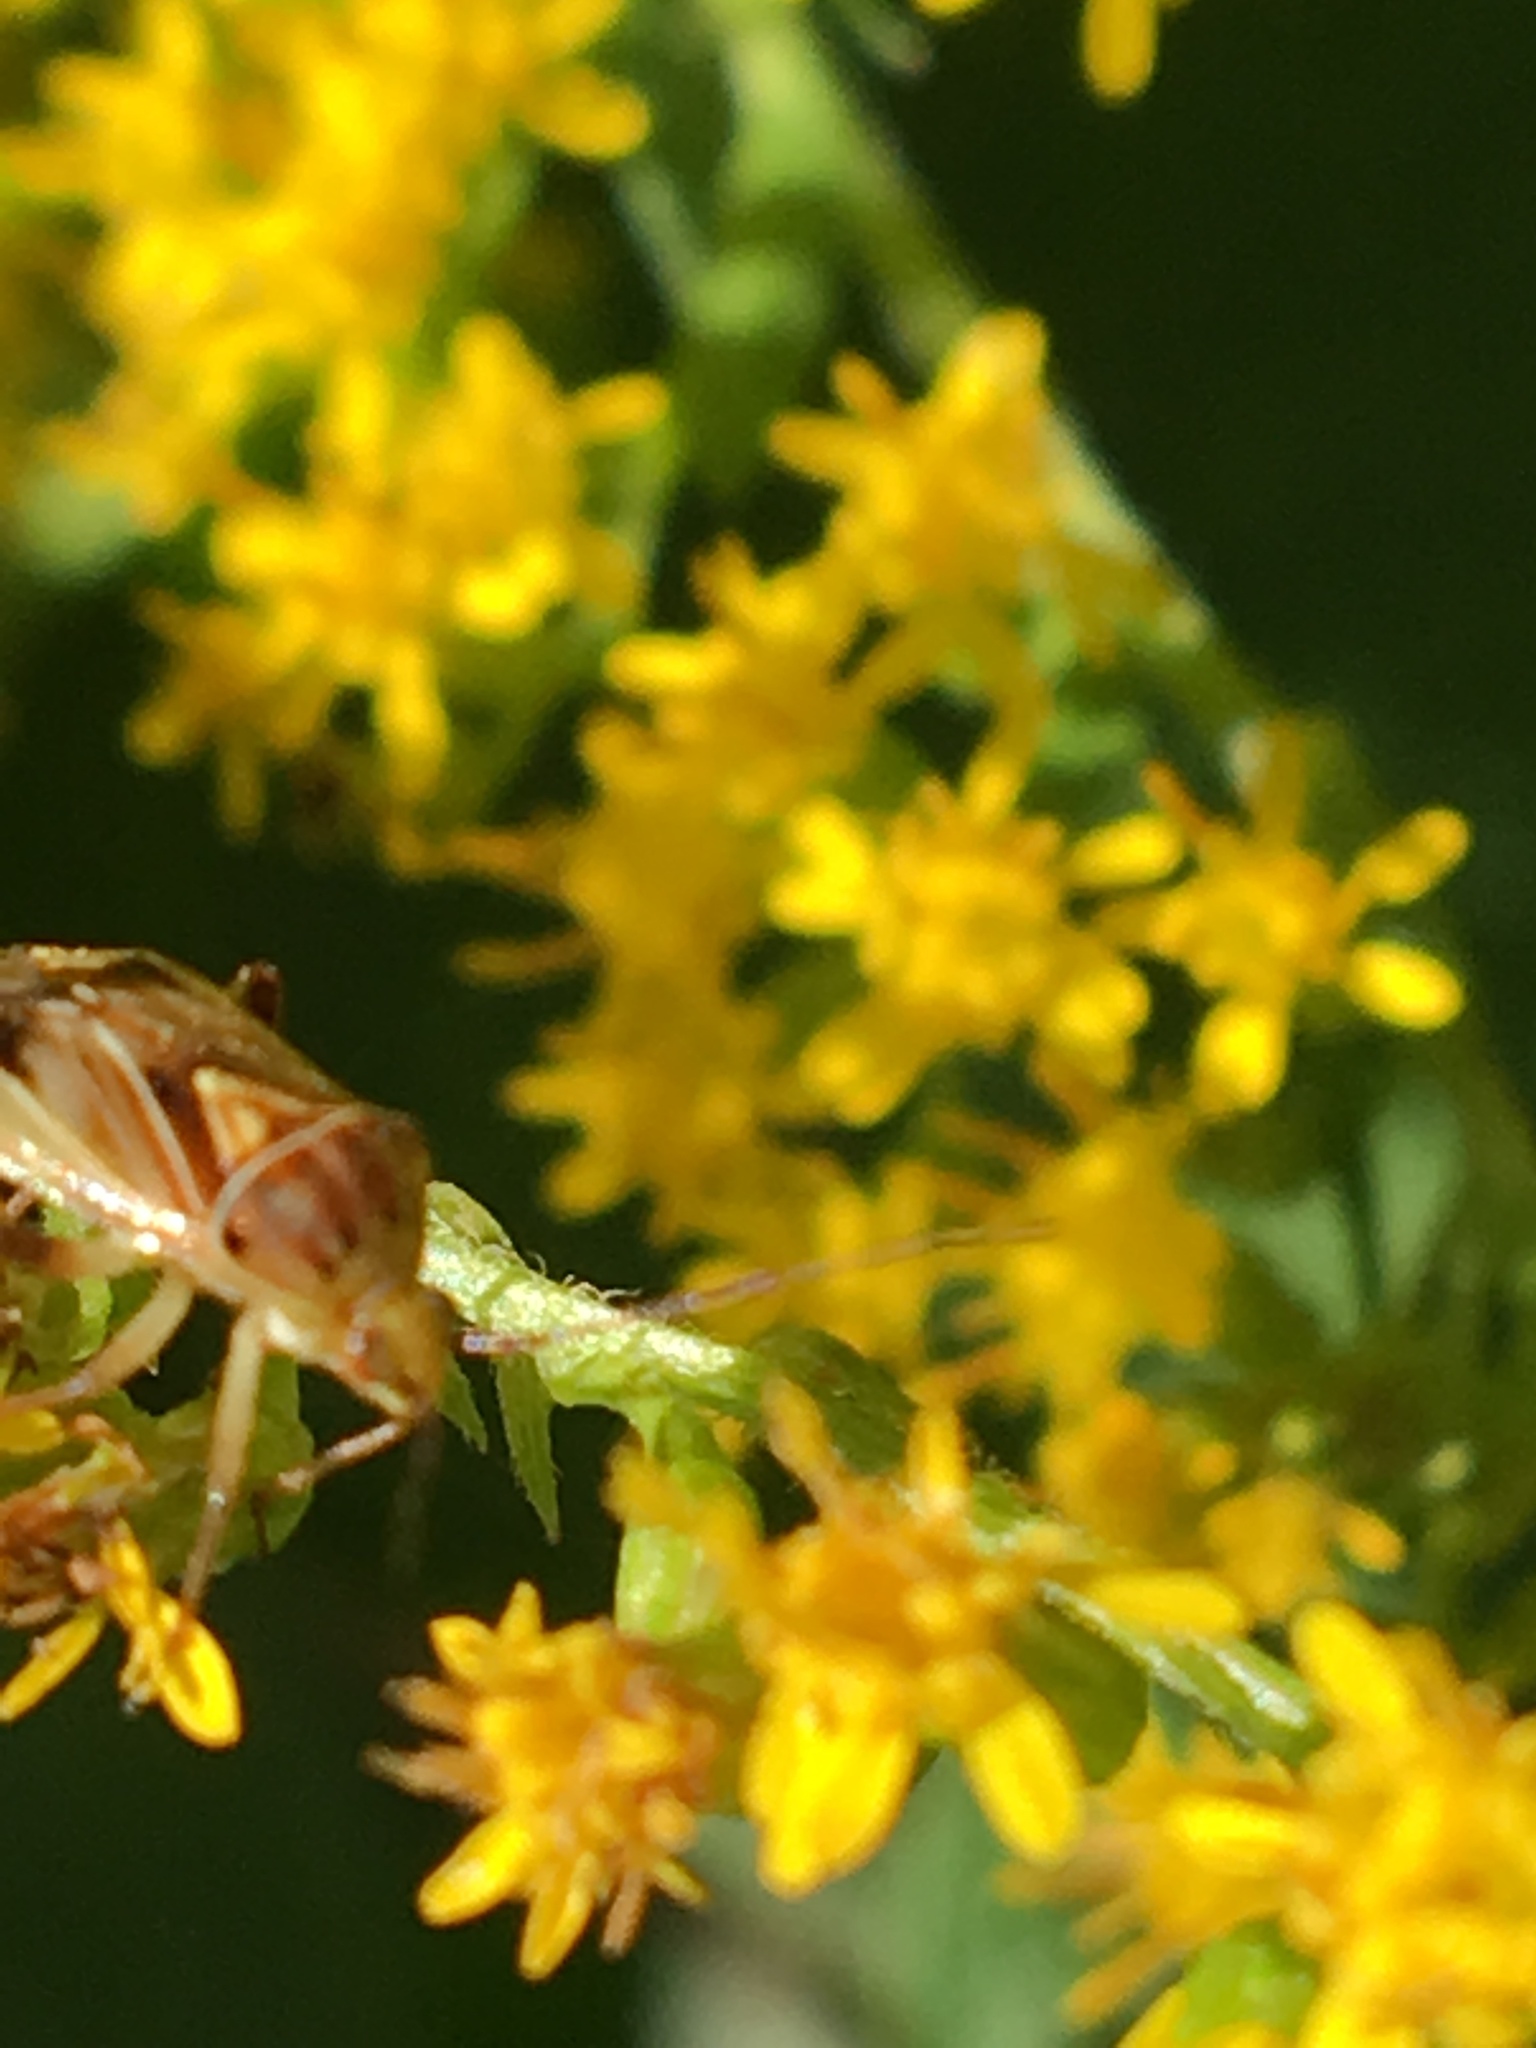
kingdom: Animalia
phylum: Arthropoda
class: Insecta
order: Hemiptera
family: Miridae
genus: Lygus
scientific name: Lygus vanduzeei
